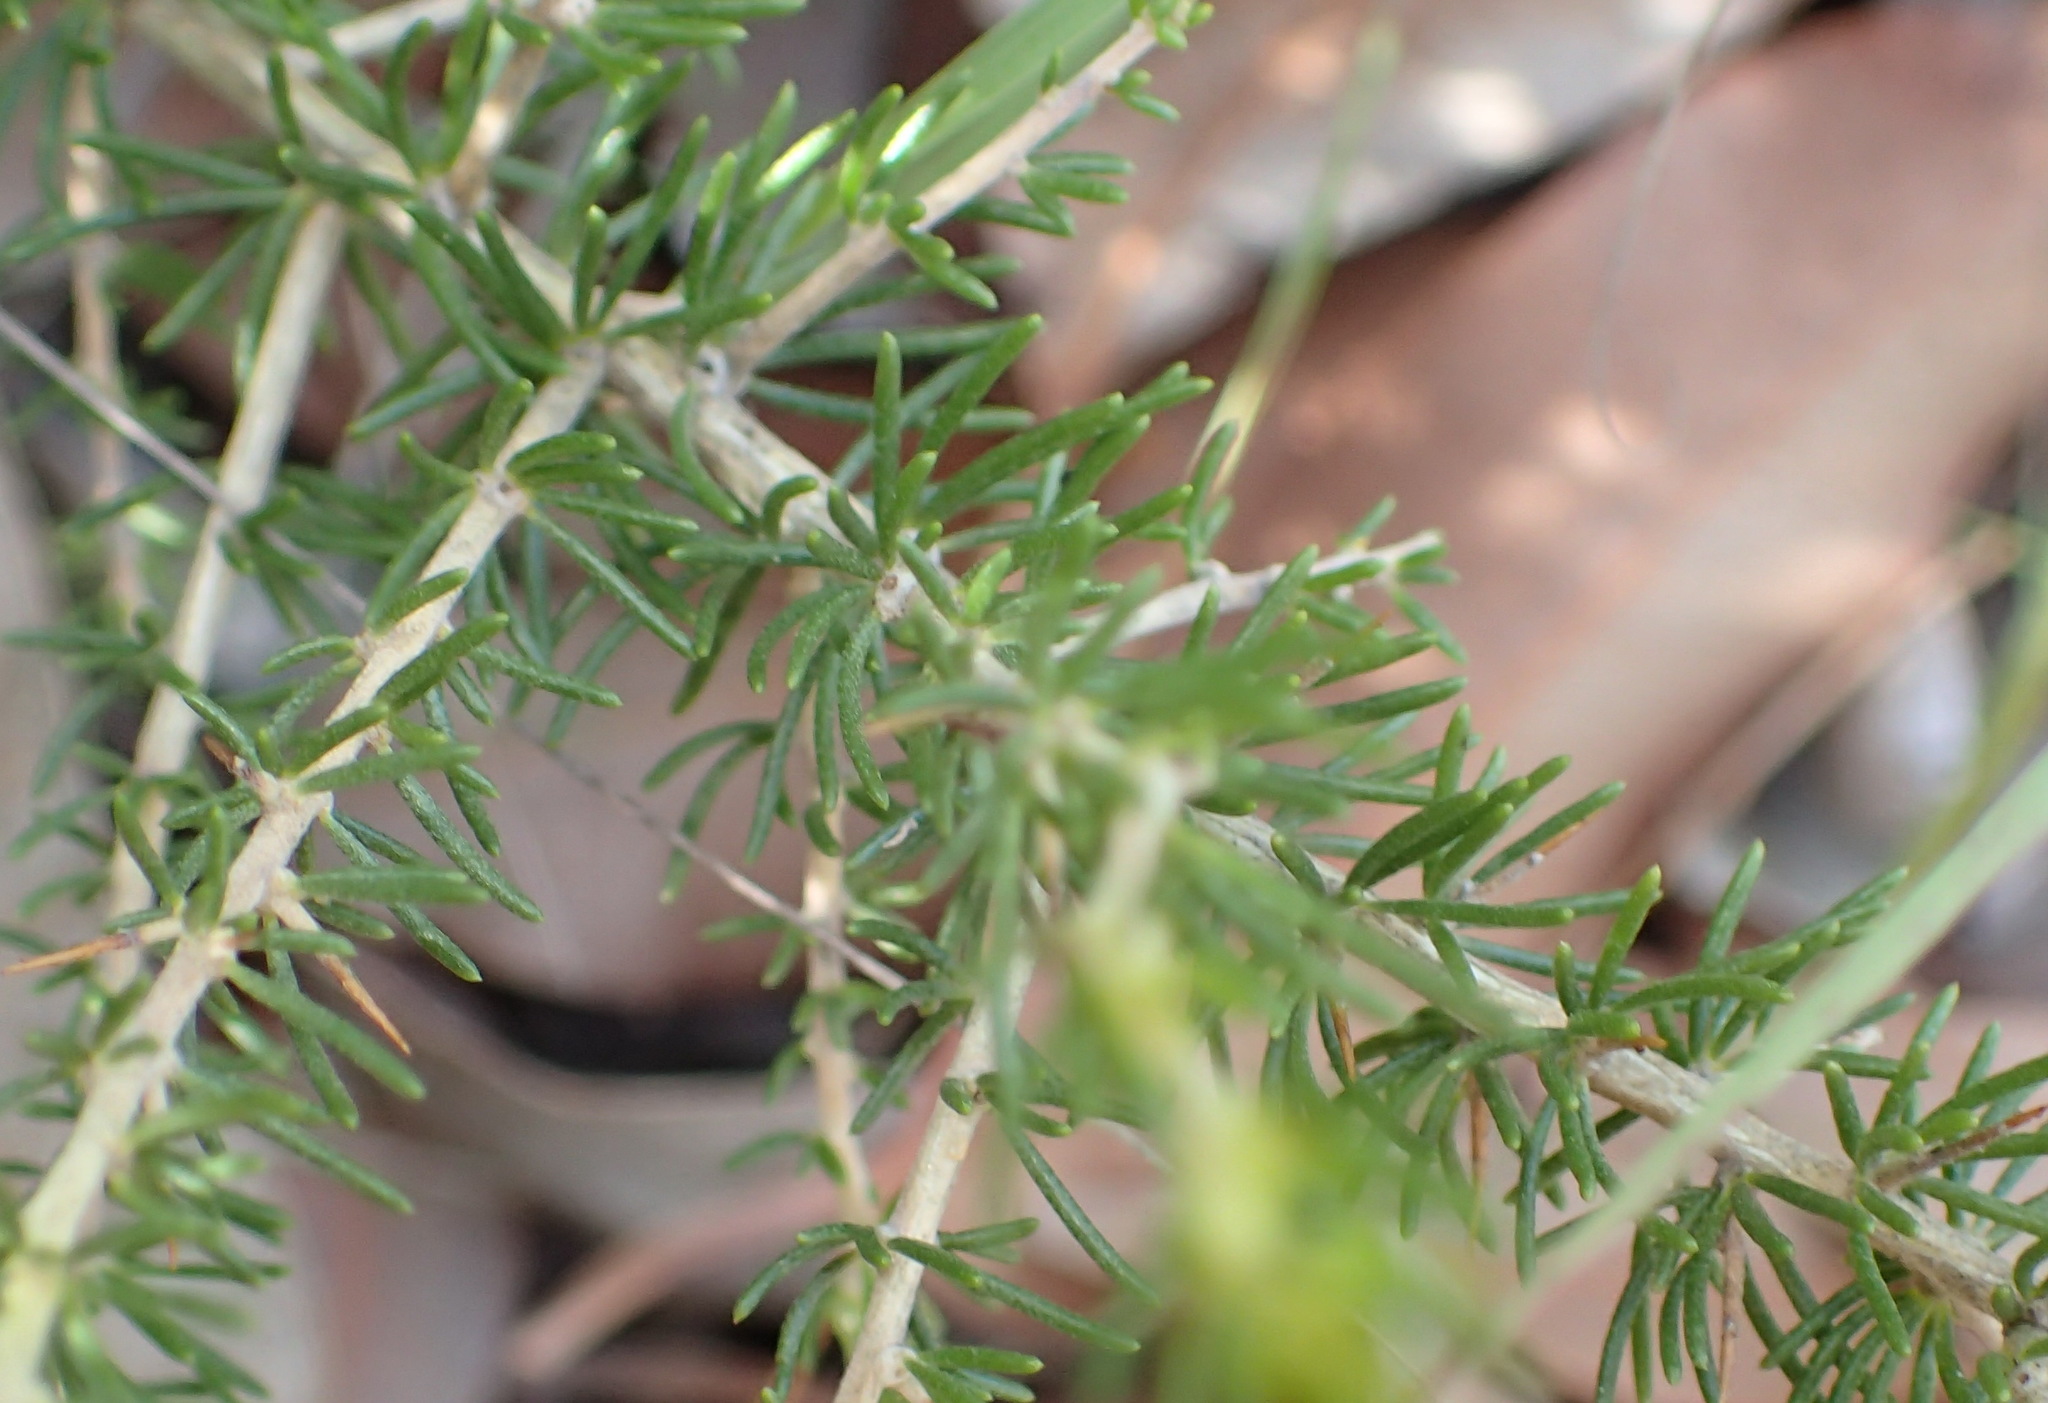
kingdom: Plantae
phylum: Tracheophyta
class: Magnoliopsida
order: Fabales
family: Fabaceae
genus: Aspalathus
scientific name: Aspalathus spinosa
